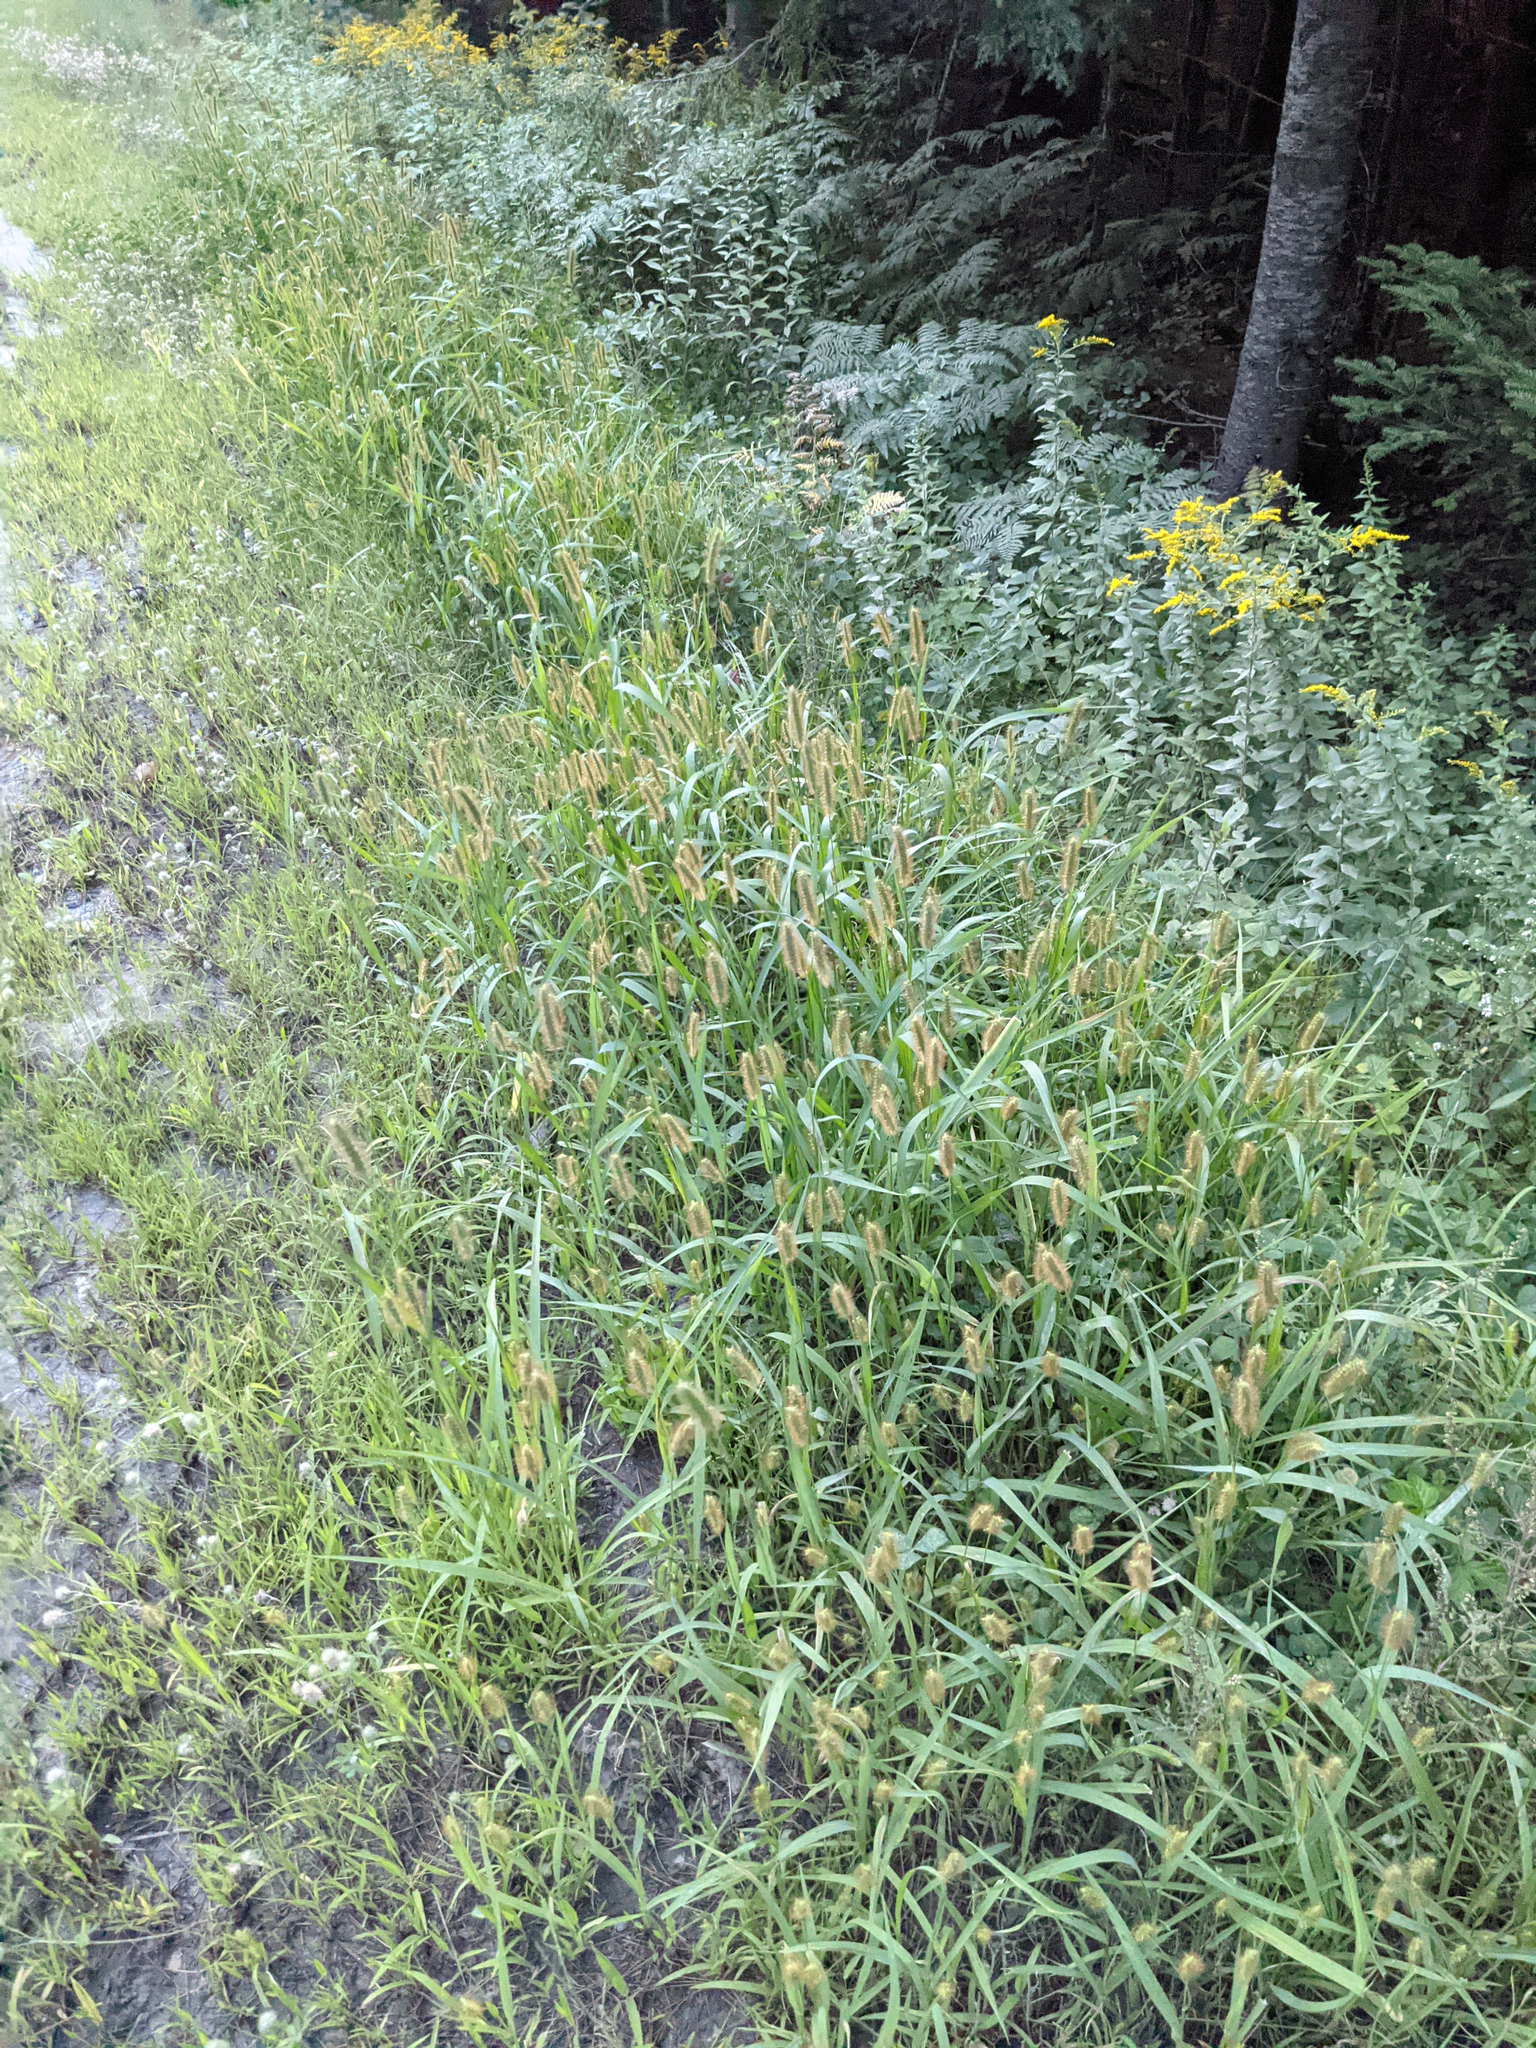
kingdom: Plantae
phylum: Tracheophyta
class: Liliopsida
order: Poales
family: Poaceae
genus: Setaria
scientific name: Setaria pumila
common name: Yellow bristle-grass
